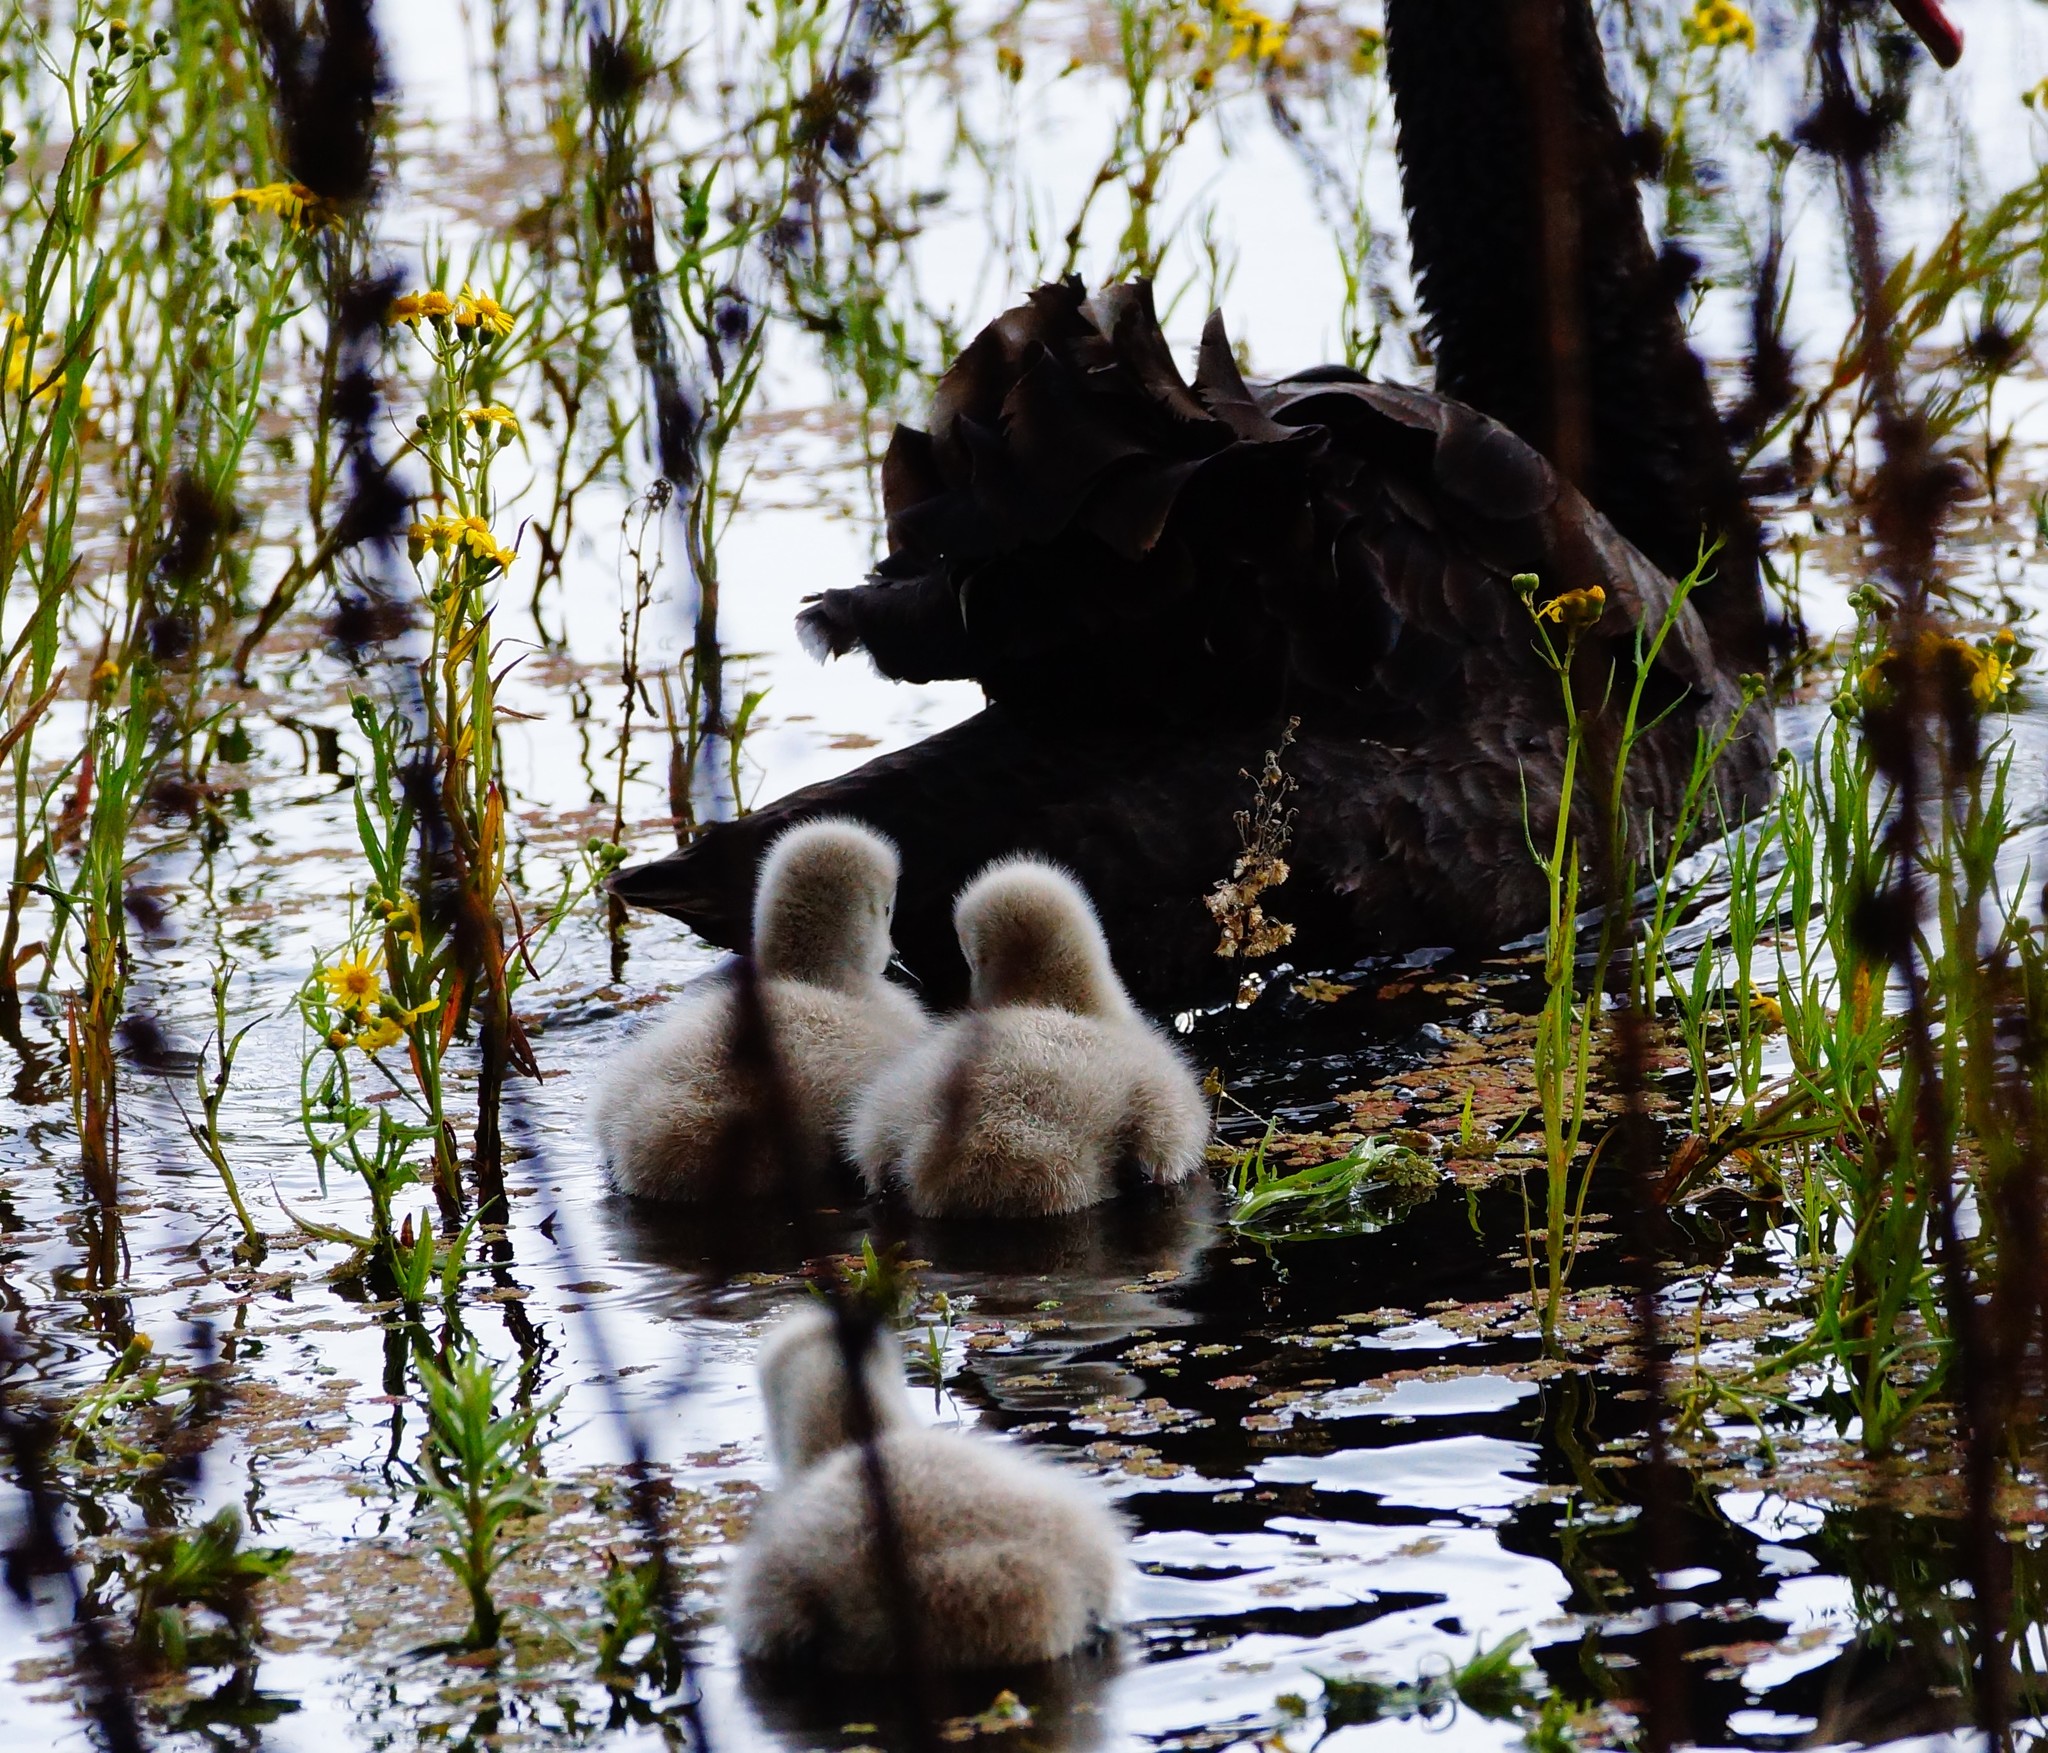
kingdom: Animalia
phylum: Chordata
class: Aves
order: Anseriformes
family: Anatidae
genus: Cygnus
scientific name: Cygnus atratus
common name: Black swan
